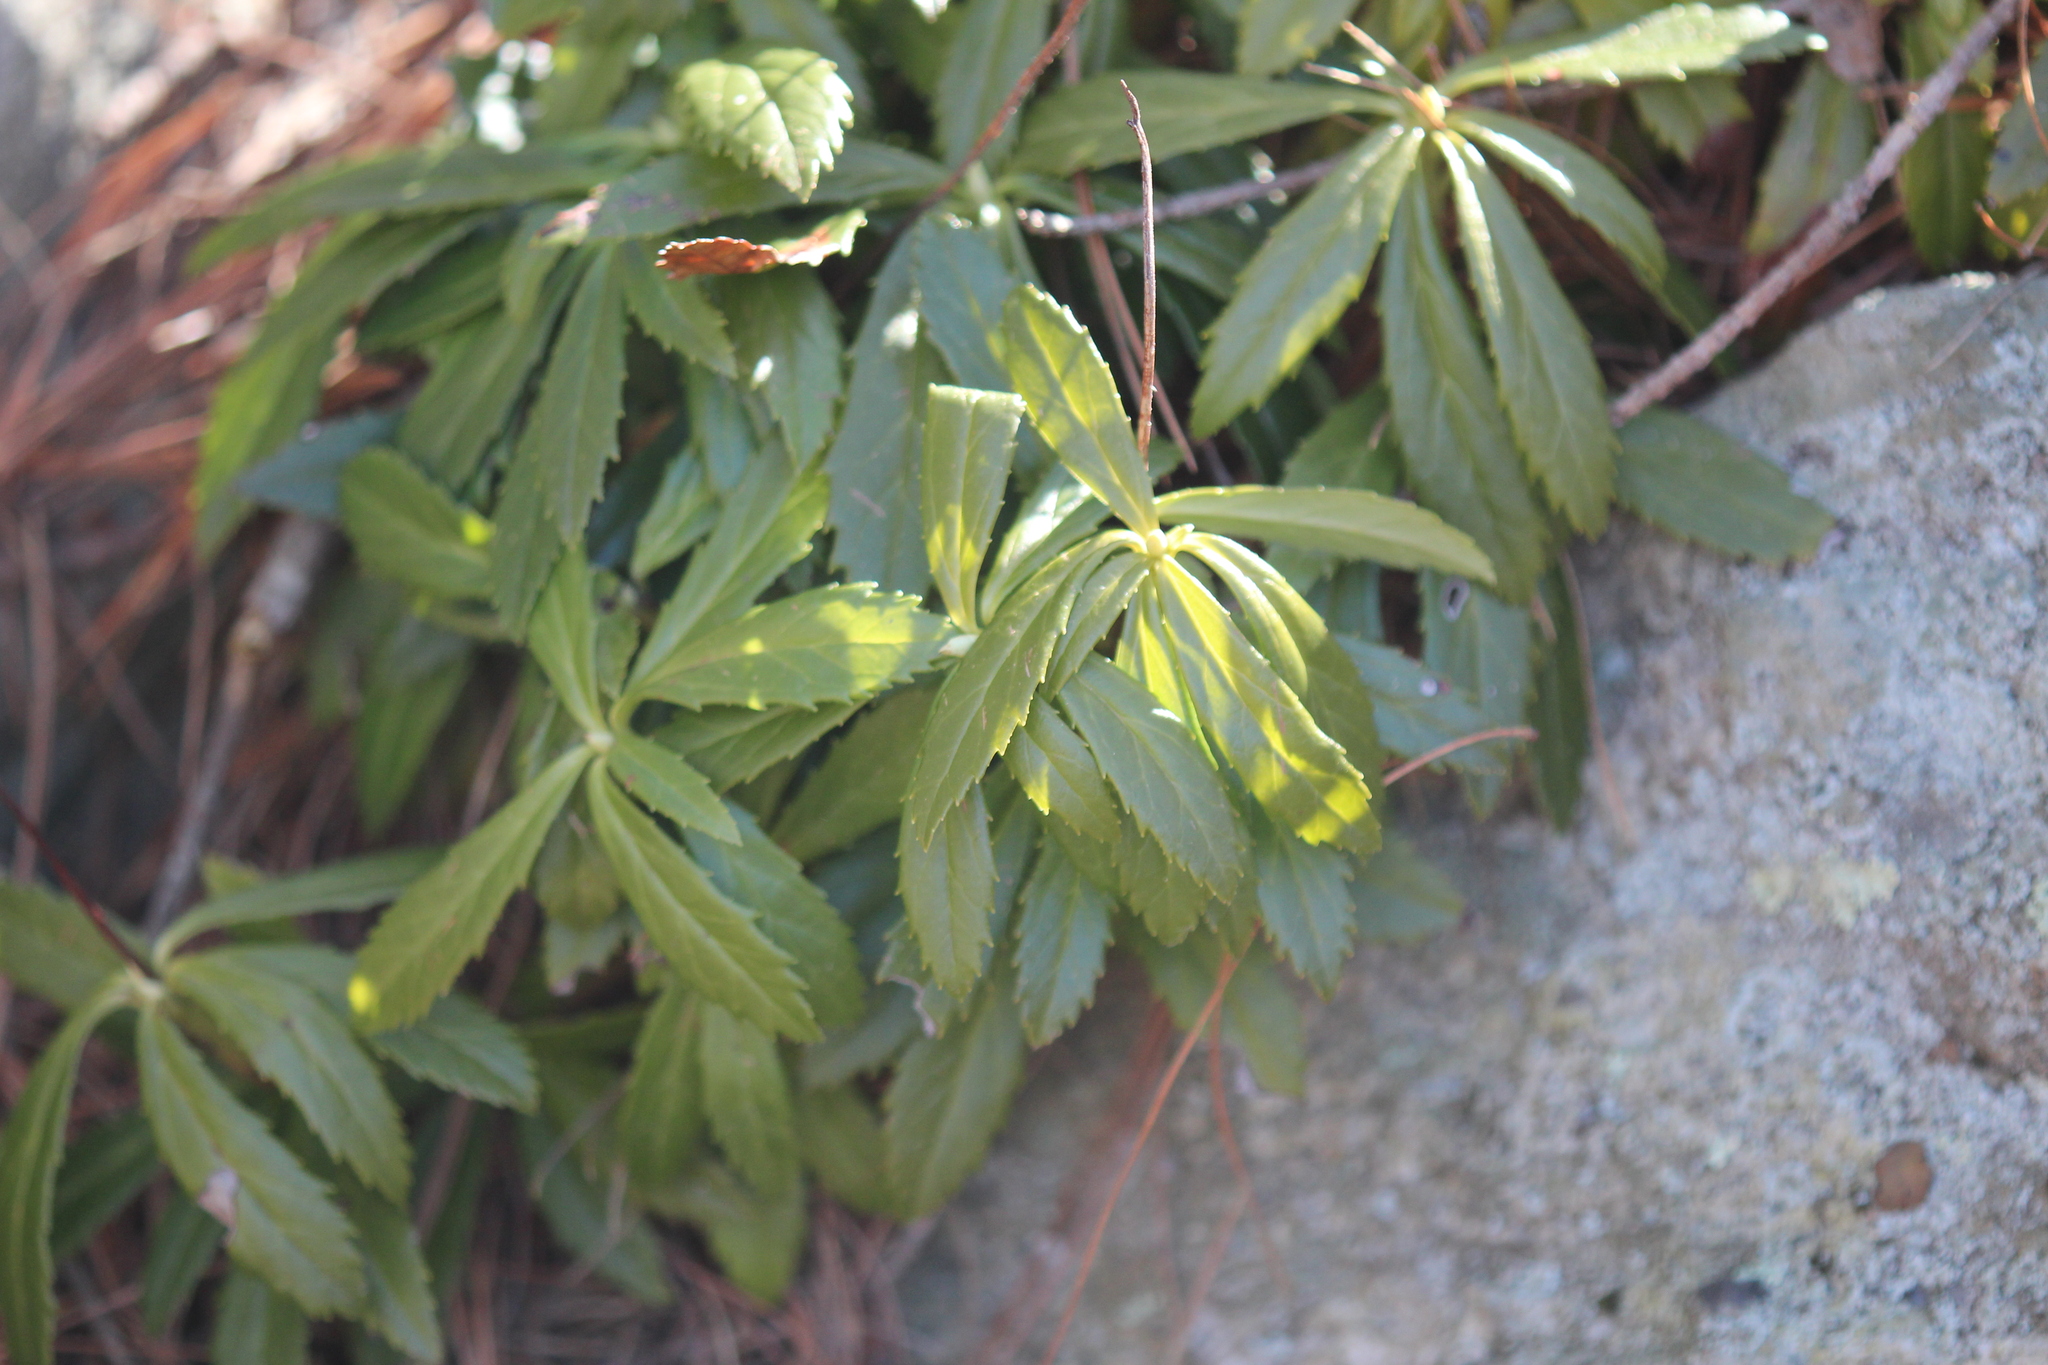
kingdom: Plantae
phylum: Tracheophyta
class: Magnoliopsida
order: Ericales
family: Ericaceae
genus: Chimaphila
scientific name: Chimaphila umbellata
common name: Pipsissewa
